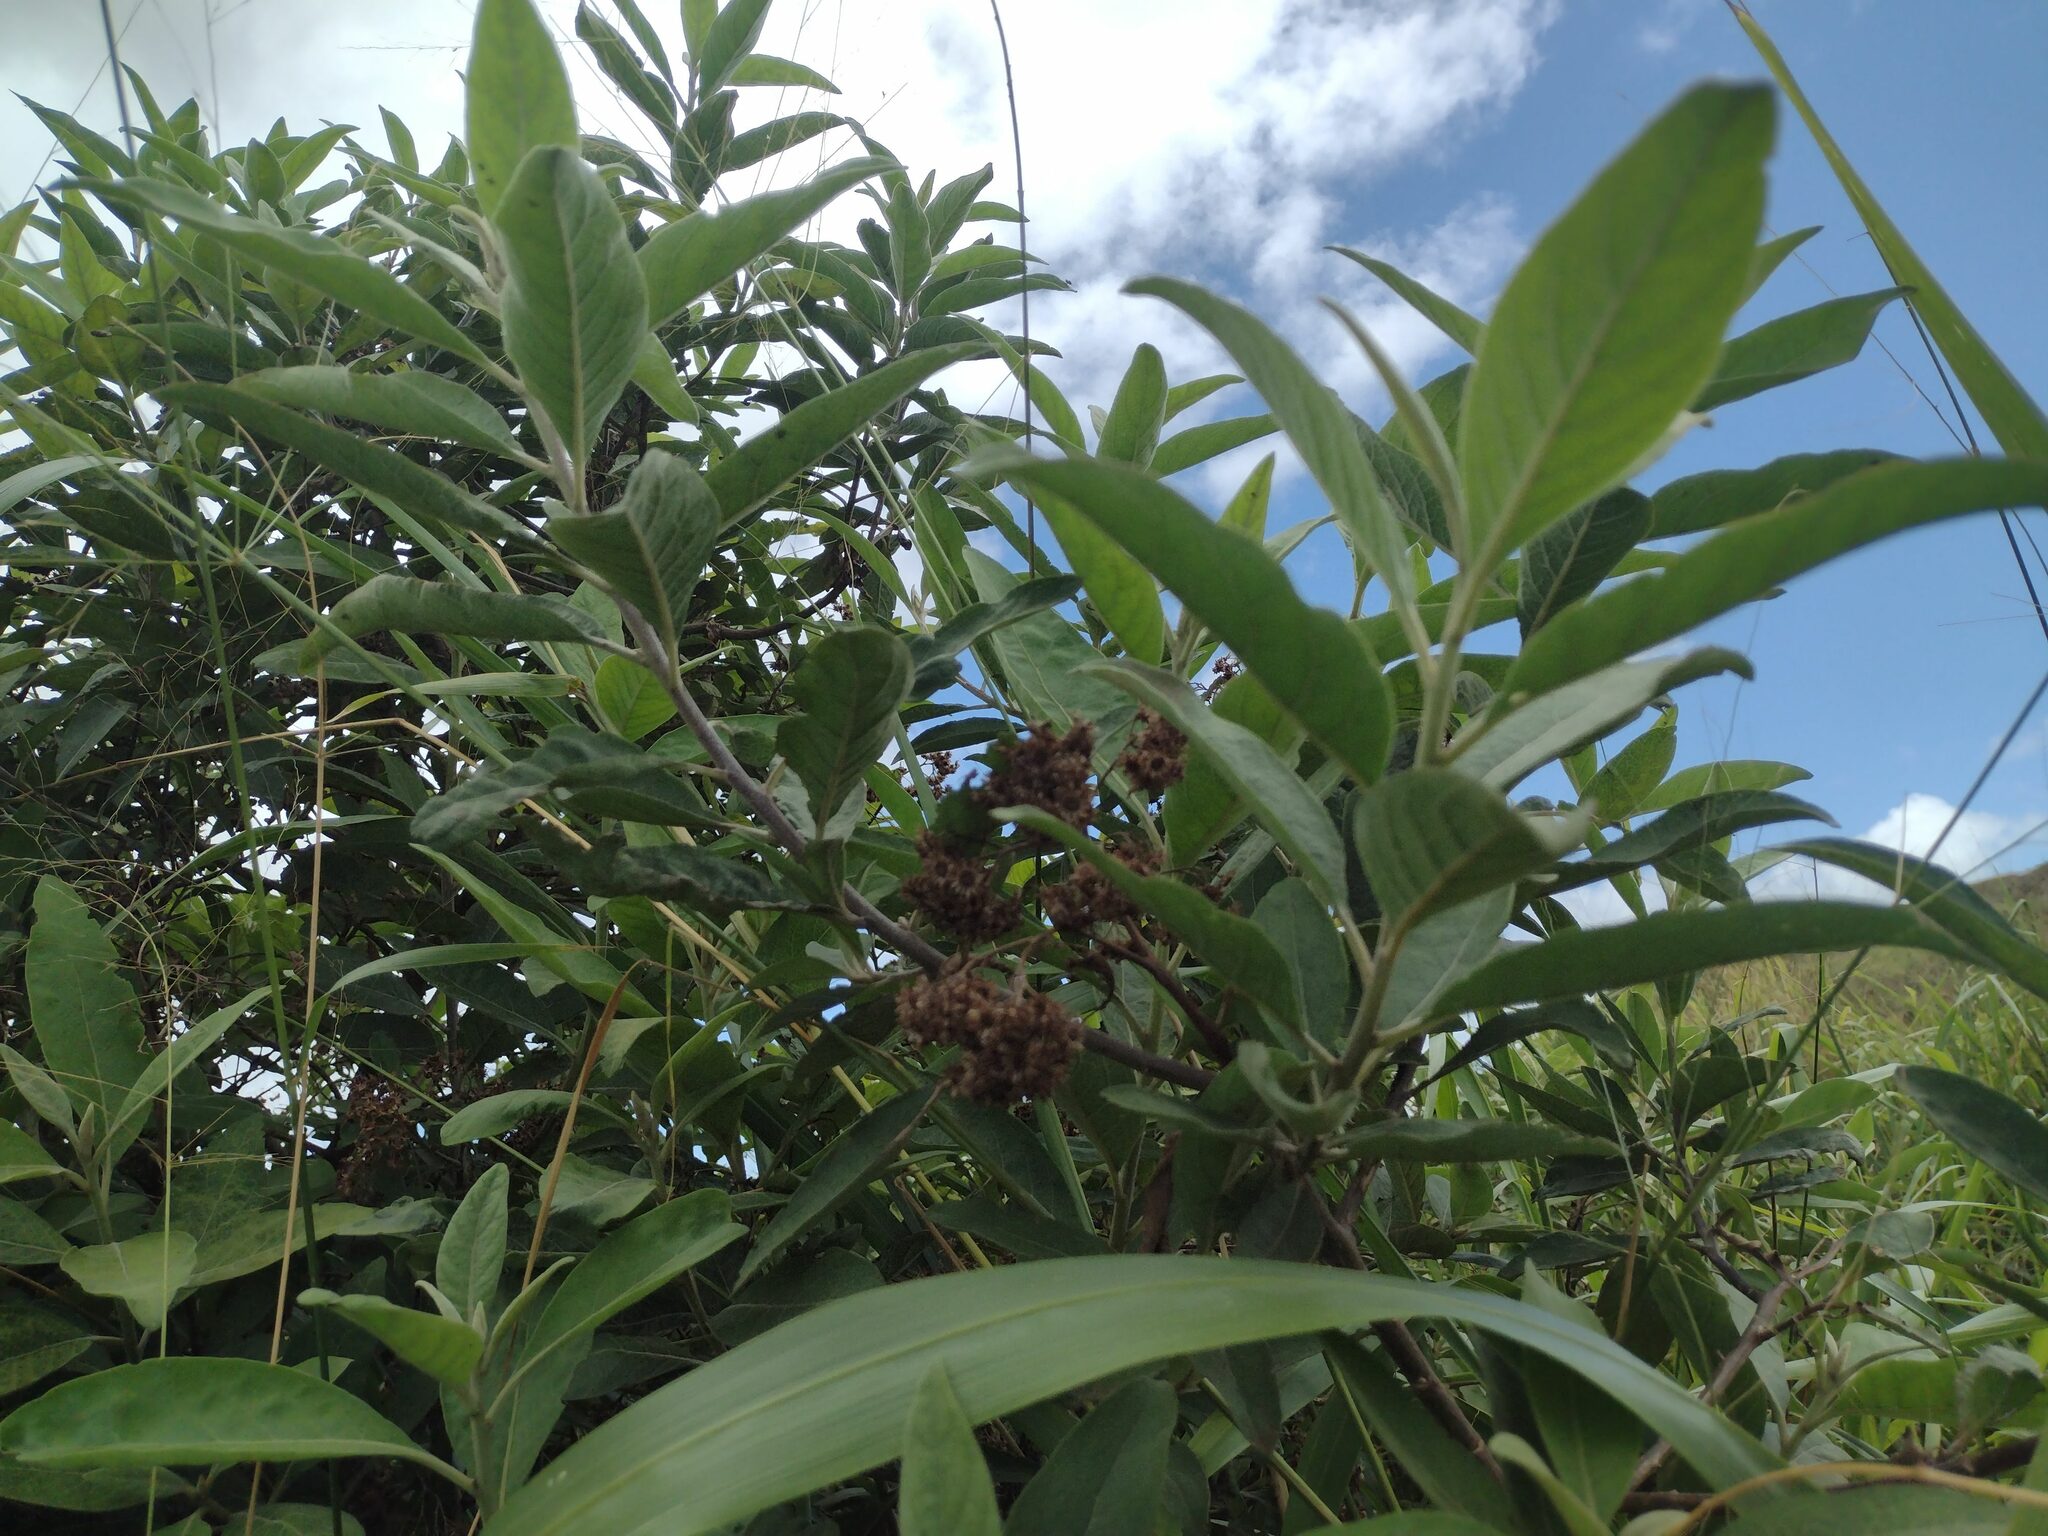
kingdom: Plantae
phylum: Tracheophyta
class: Magnoliopsida
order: Asterales
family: Asteraceae
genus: Pluchea
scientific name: Pluchea carolinensis
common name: Marsh fleabane
